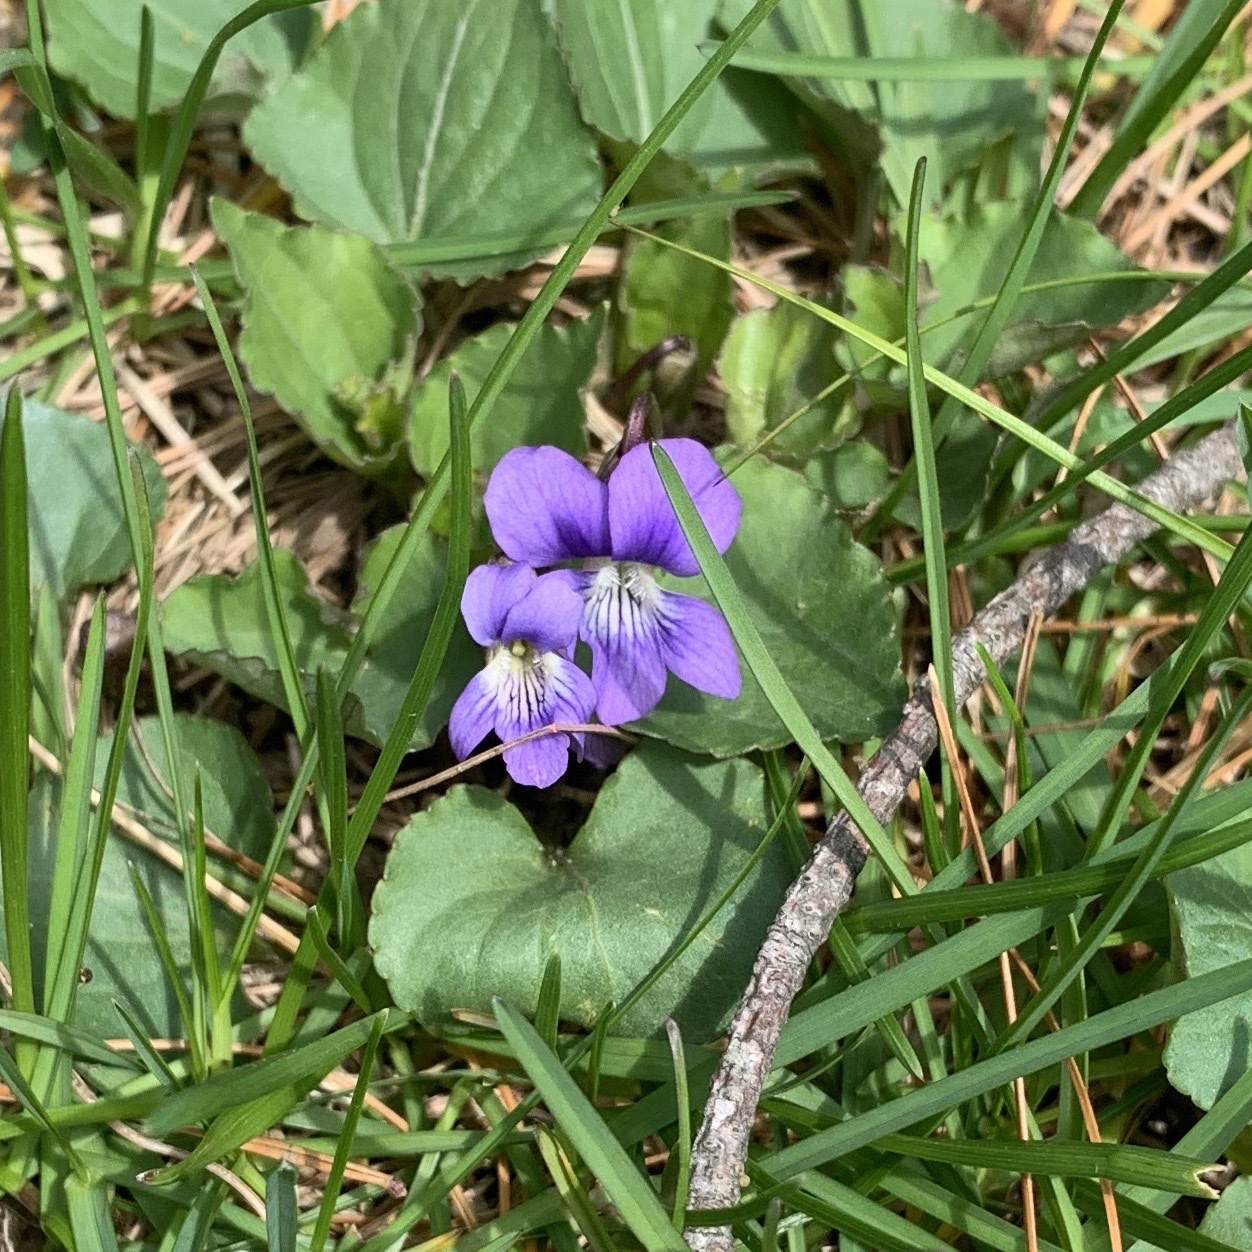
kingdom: Plantae
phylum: Tracheophyta
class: Magnoliopsida
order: Malpighiales
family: Violaceae
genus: Viola
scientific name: Viola sororia
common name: Dooryard violet
